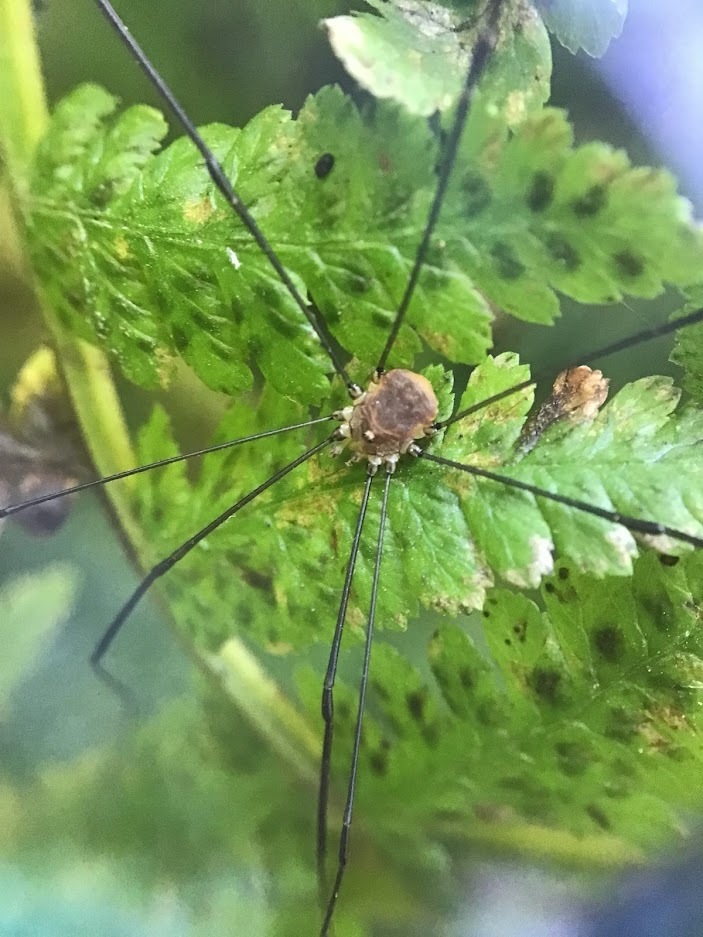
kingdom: Animalia
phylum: Arthropoda
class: Arachnida
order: Opiliones
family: Sclerosomatidae
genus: Leiobunum
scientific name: Leiobunum blackwalli
